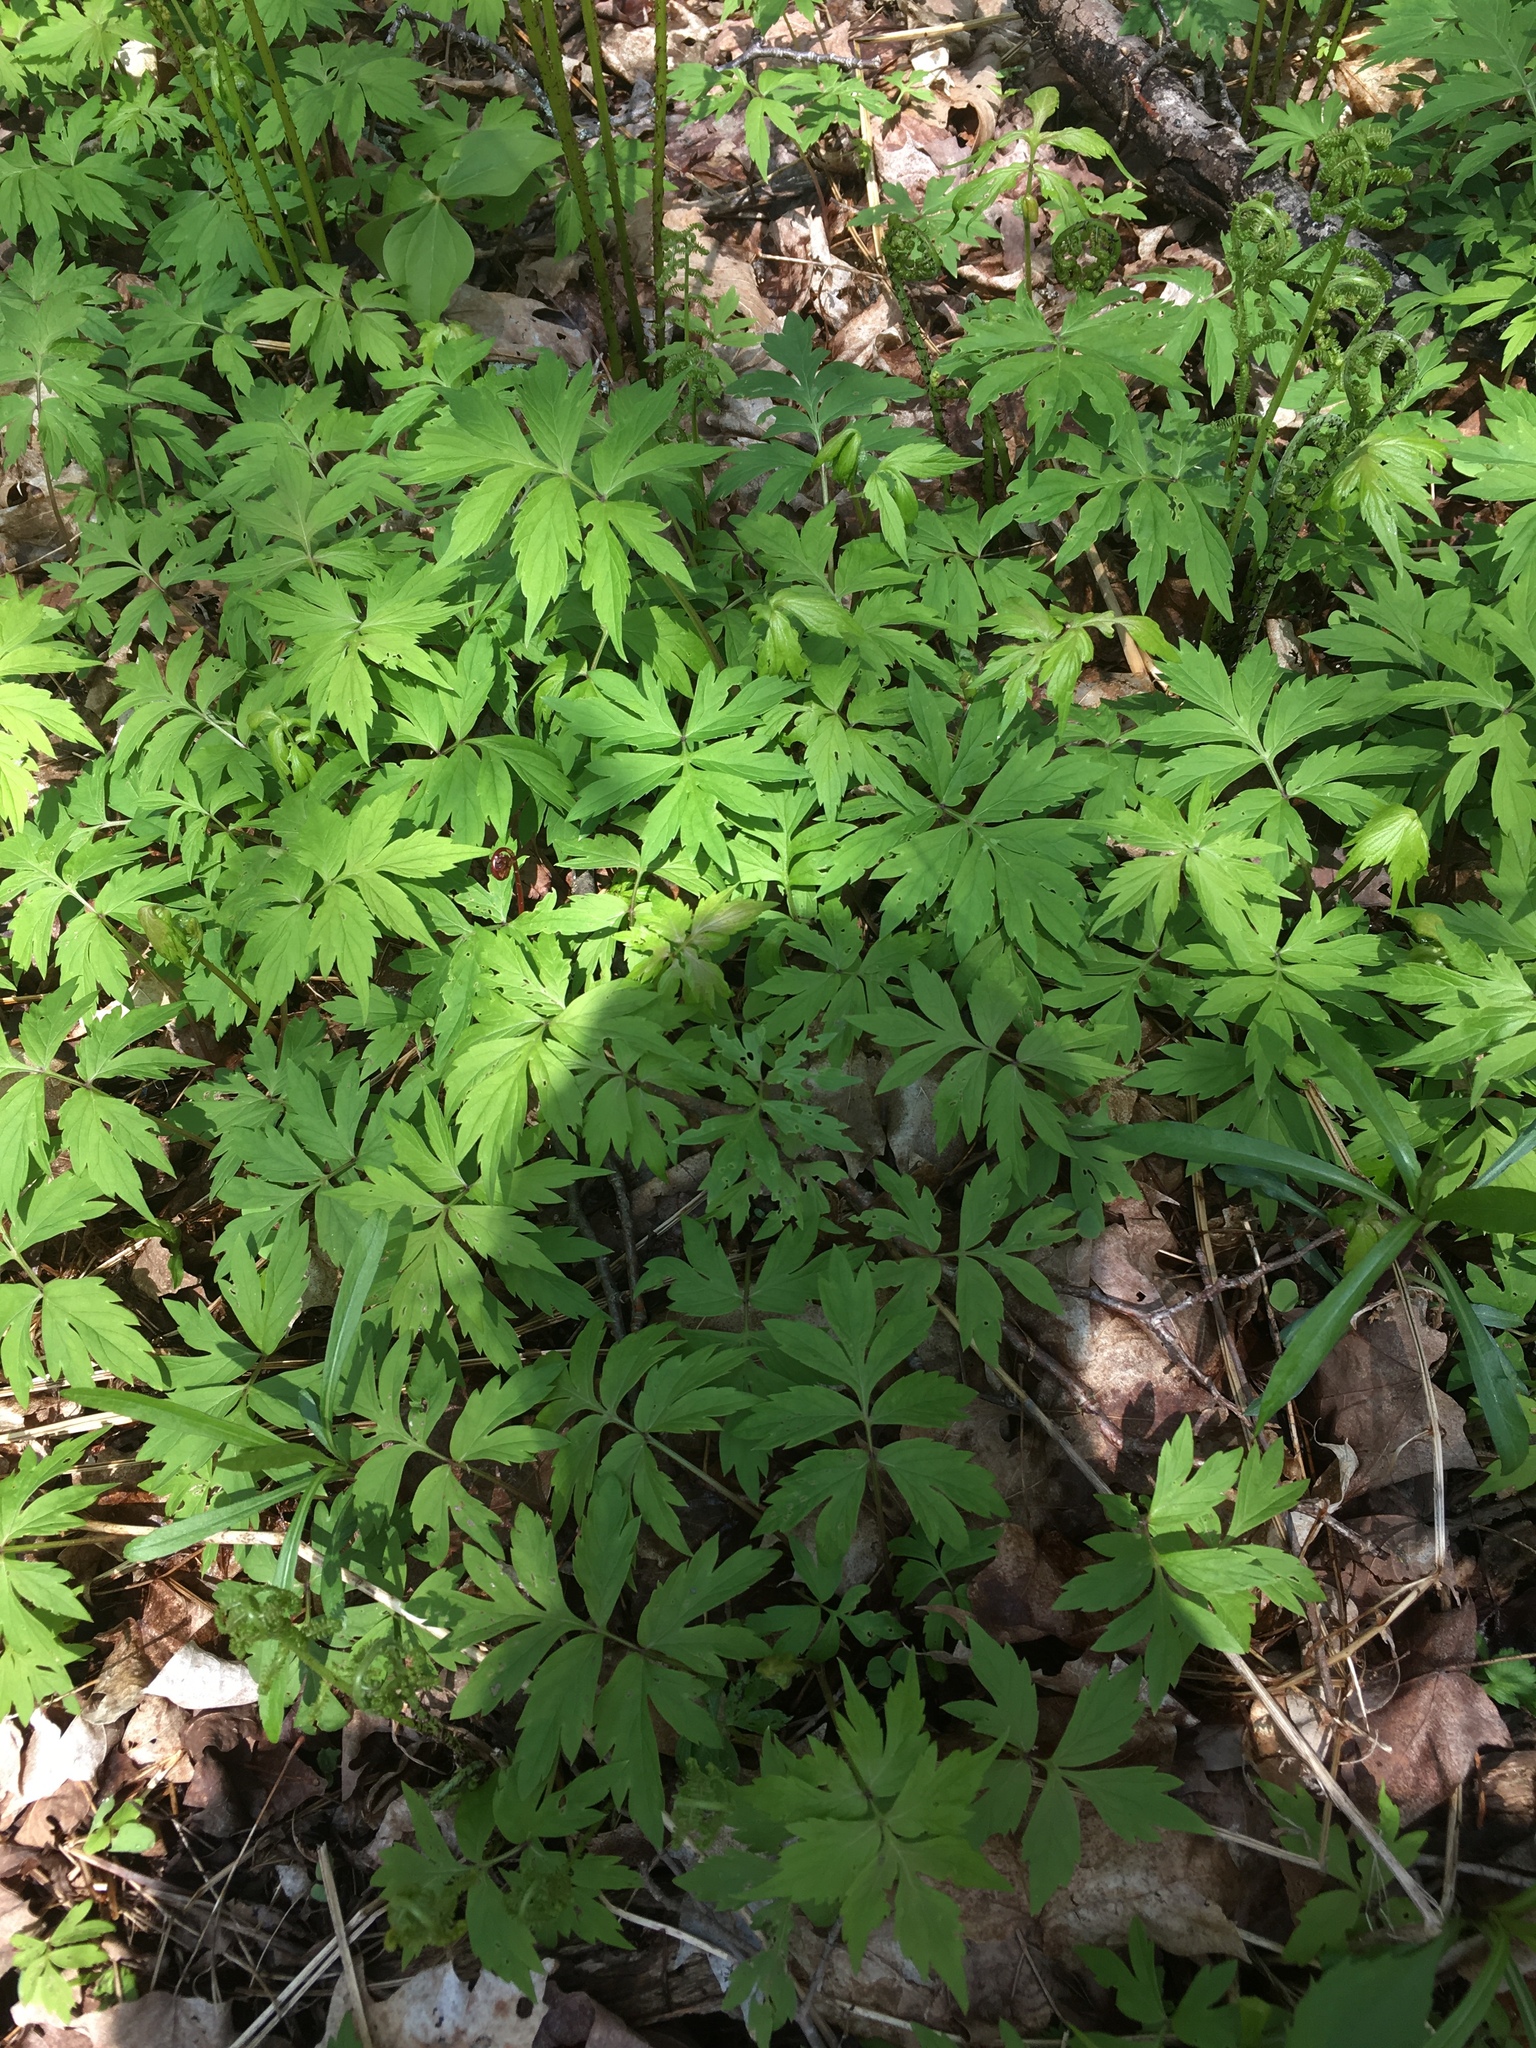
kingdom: Plantae
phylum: Tracheophyta
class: Magnoliopsida
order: Boraginales
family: Hydrophyllaceae
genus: Hydrophyllum
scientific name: Hydrophyllum virginianum
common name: Virginia waterleaf
